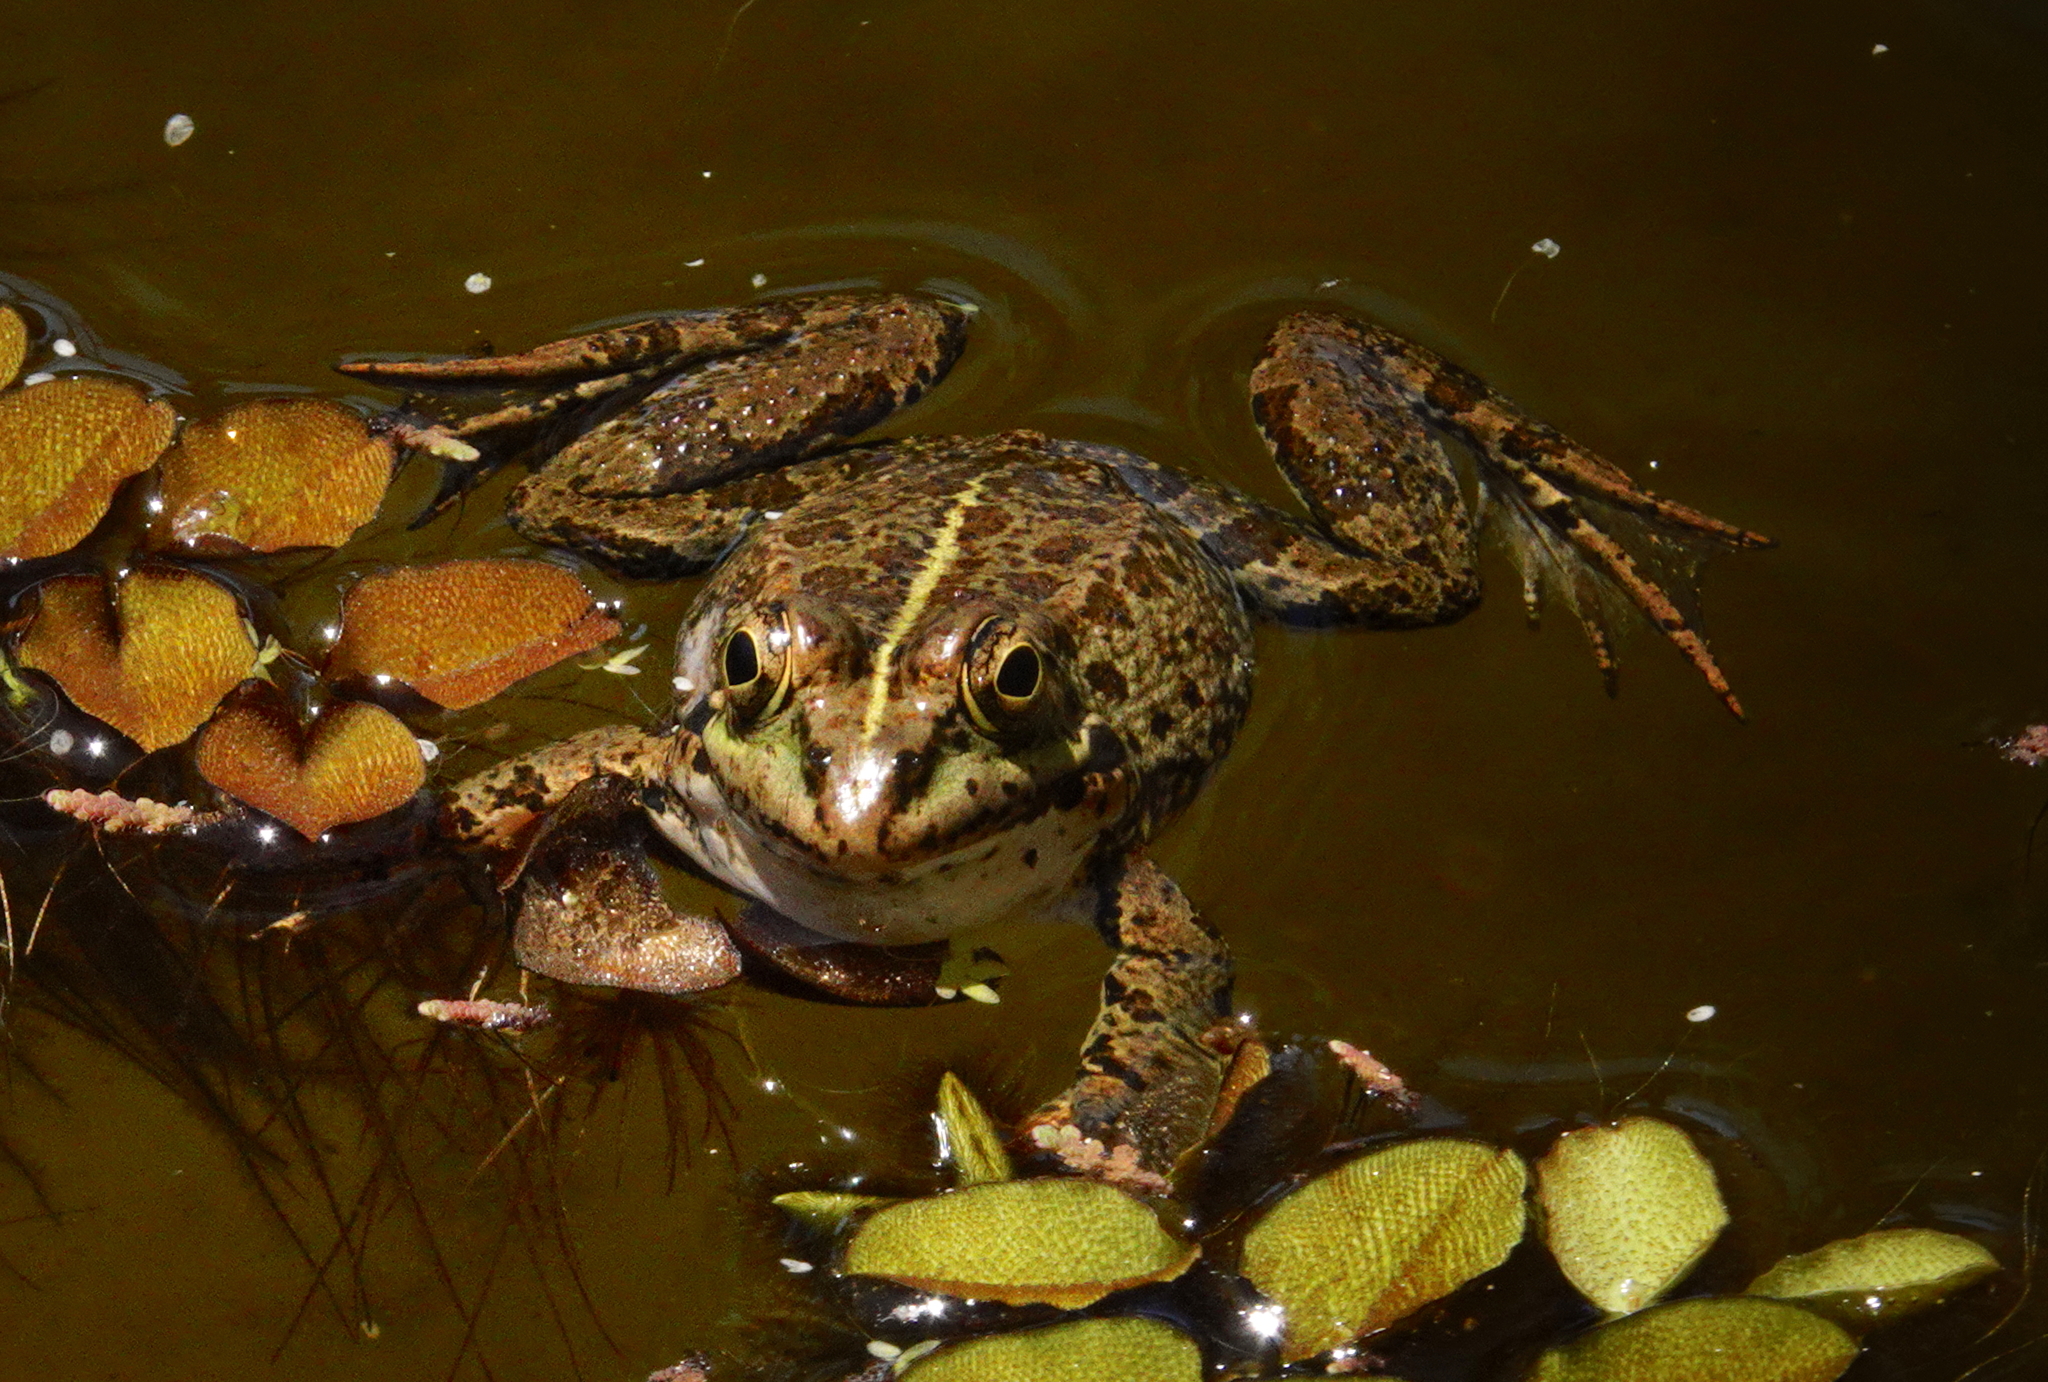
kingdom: Animalia
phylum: Chordata
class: Amphibia
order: Anura
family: Ranidae
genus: Pelophylax
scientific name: Pelophylax perezi
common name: Perez's frog
